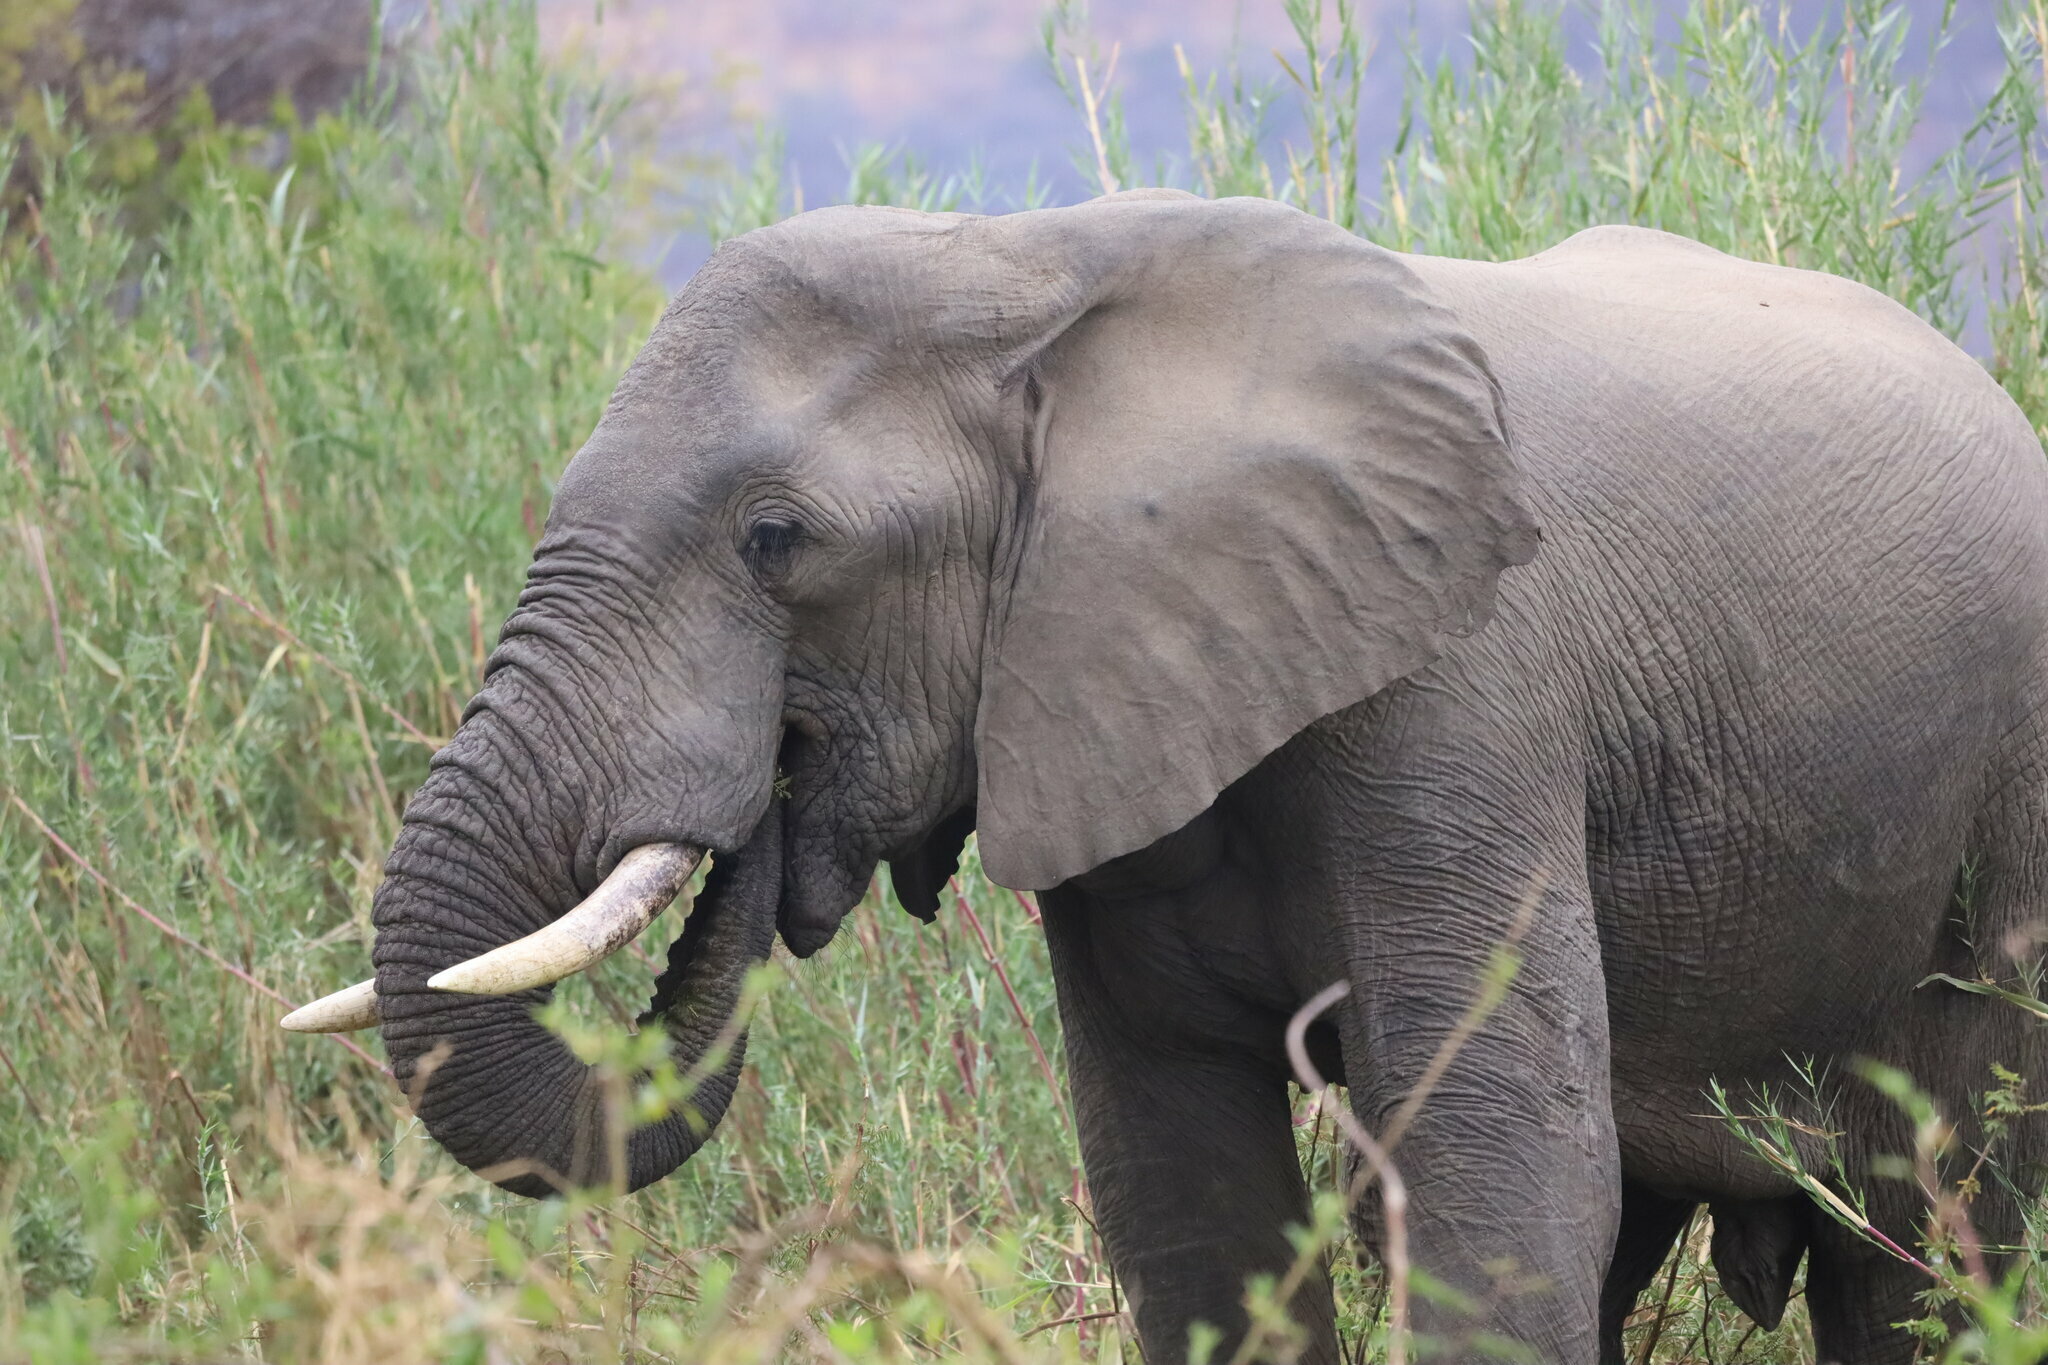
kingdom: Animalia
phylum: Chordata
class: Mammalia
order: Proboscidea
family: Elephantidae
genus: Loxodonta
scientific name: Loxodonta africana
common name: African elephant
